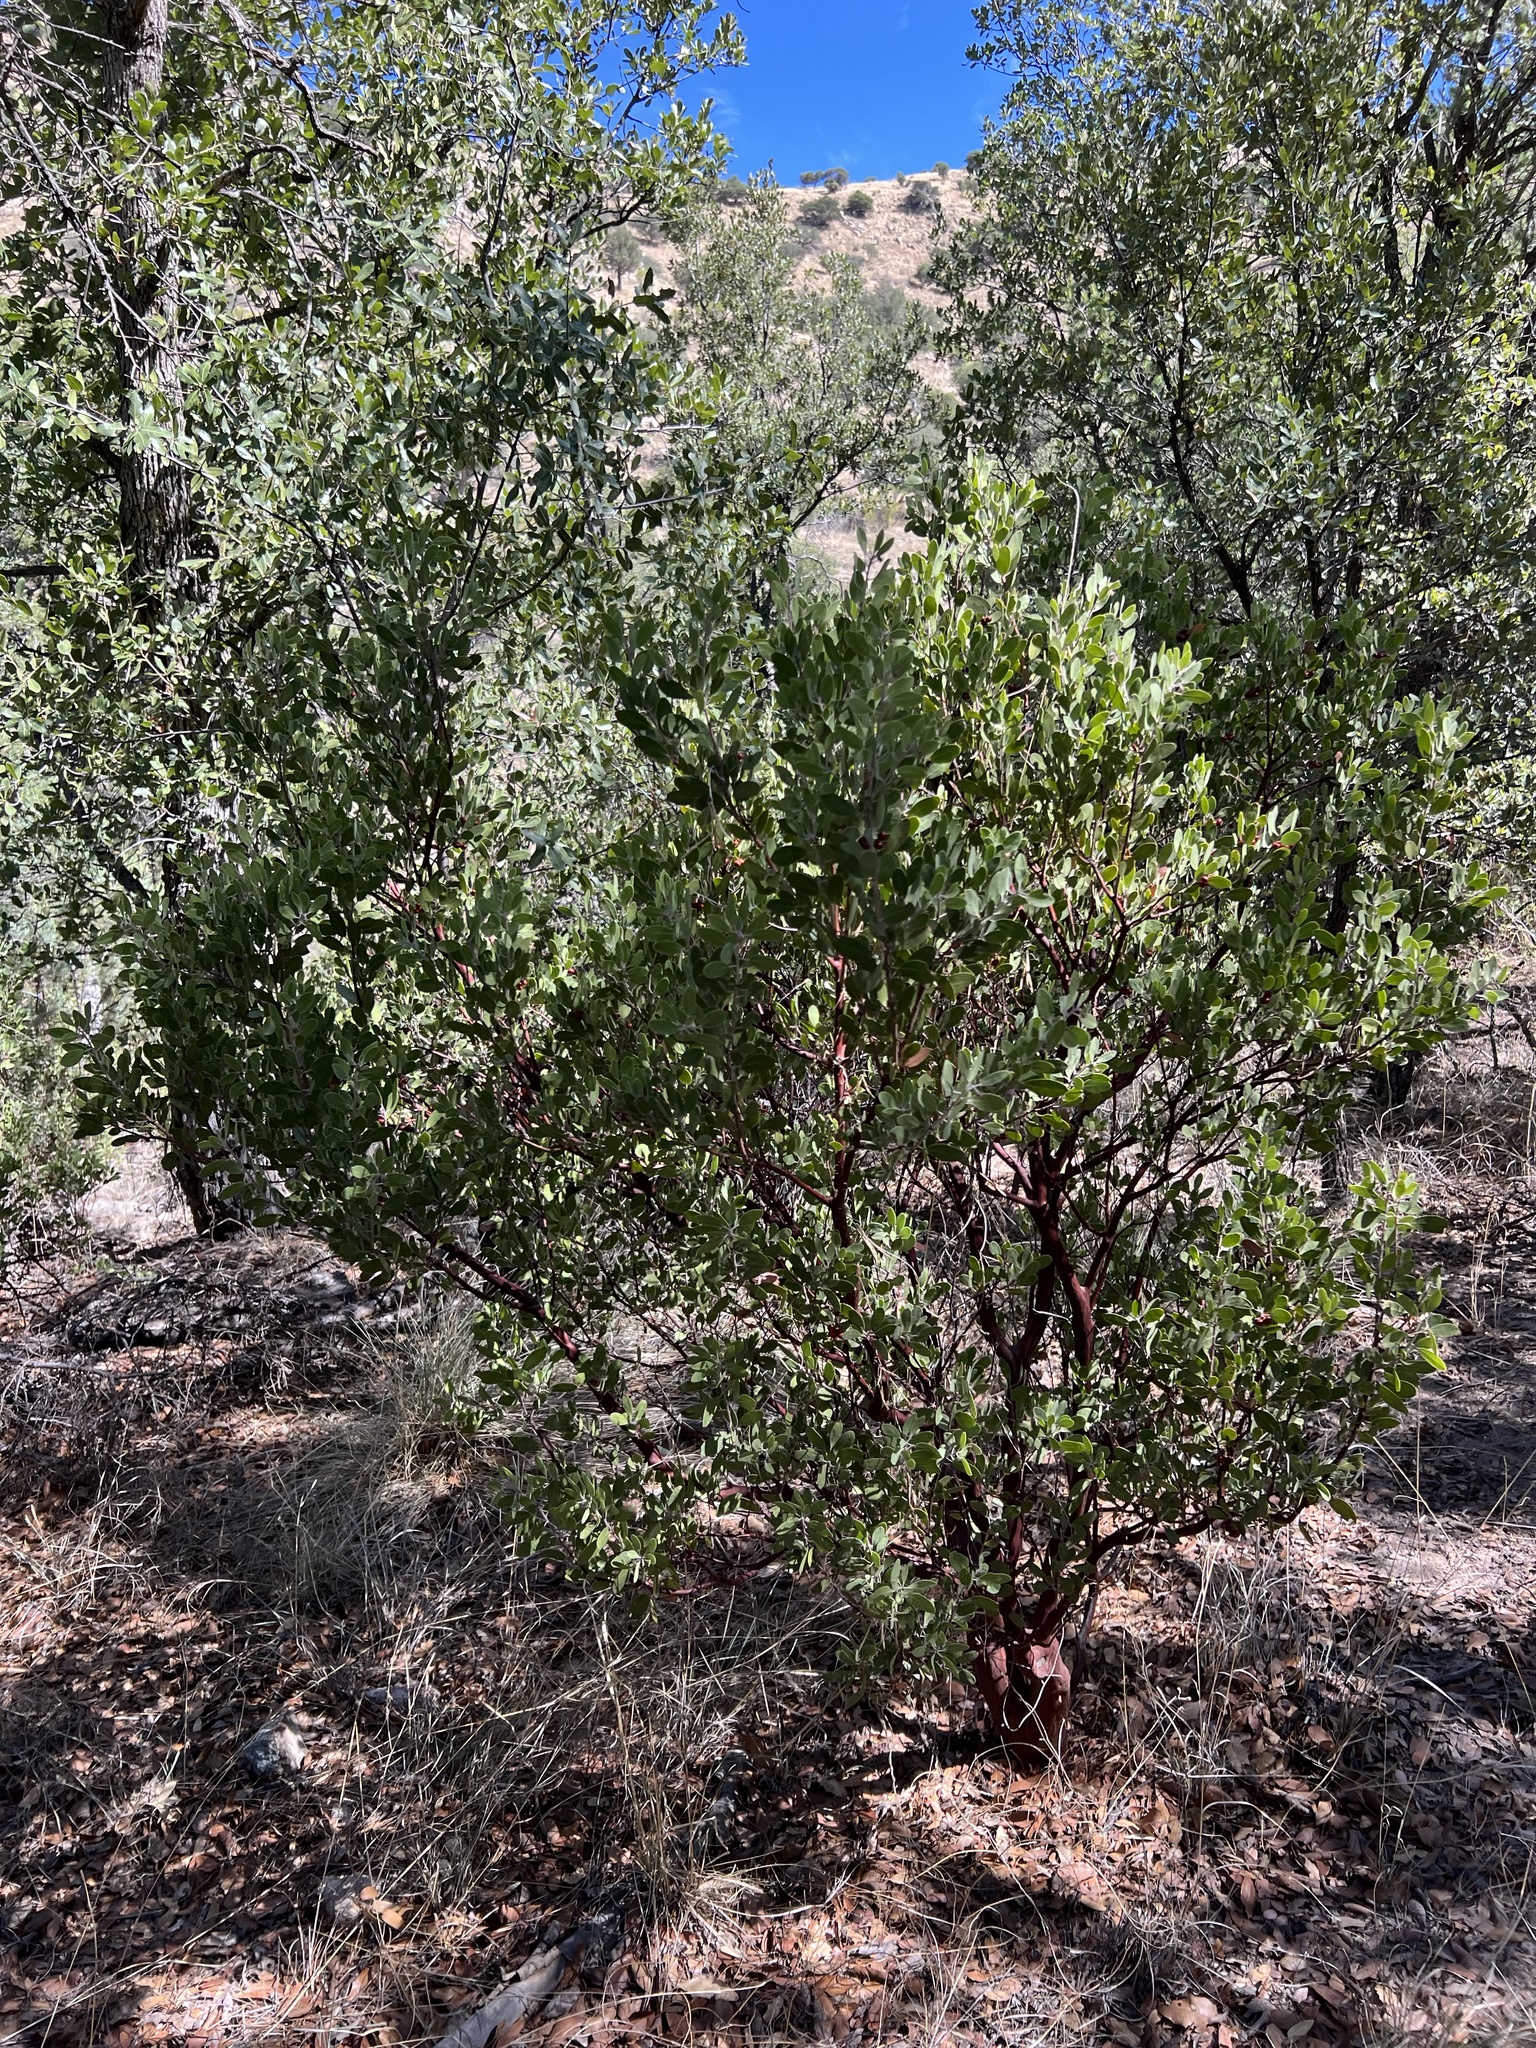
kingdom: Plantae
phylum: Tracheophyta
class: Magnoliopsida
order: Ericales
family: Ericaceae
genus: Arctostaphylos
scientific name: Arctostaphylos pungens
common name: Mexican manzanita
